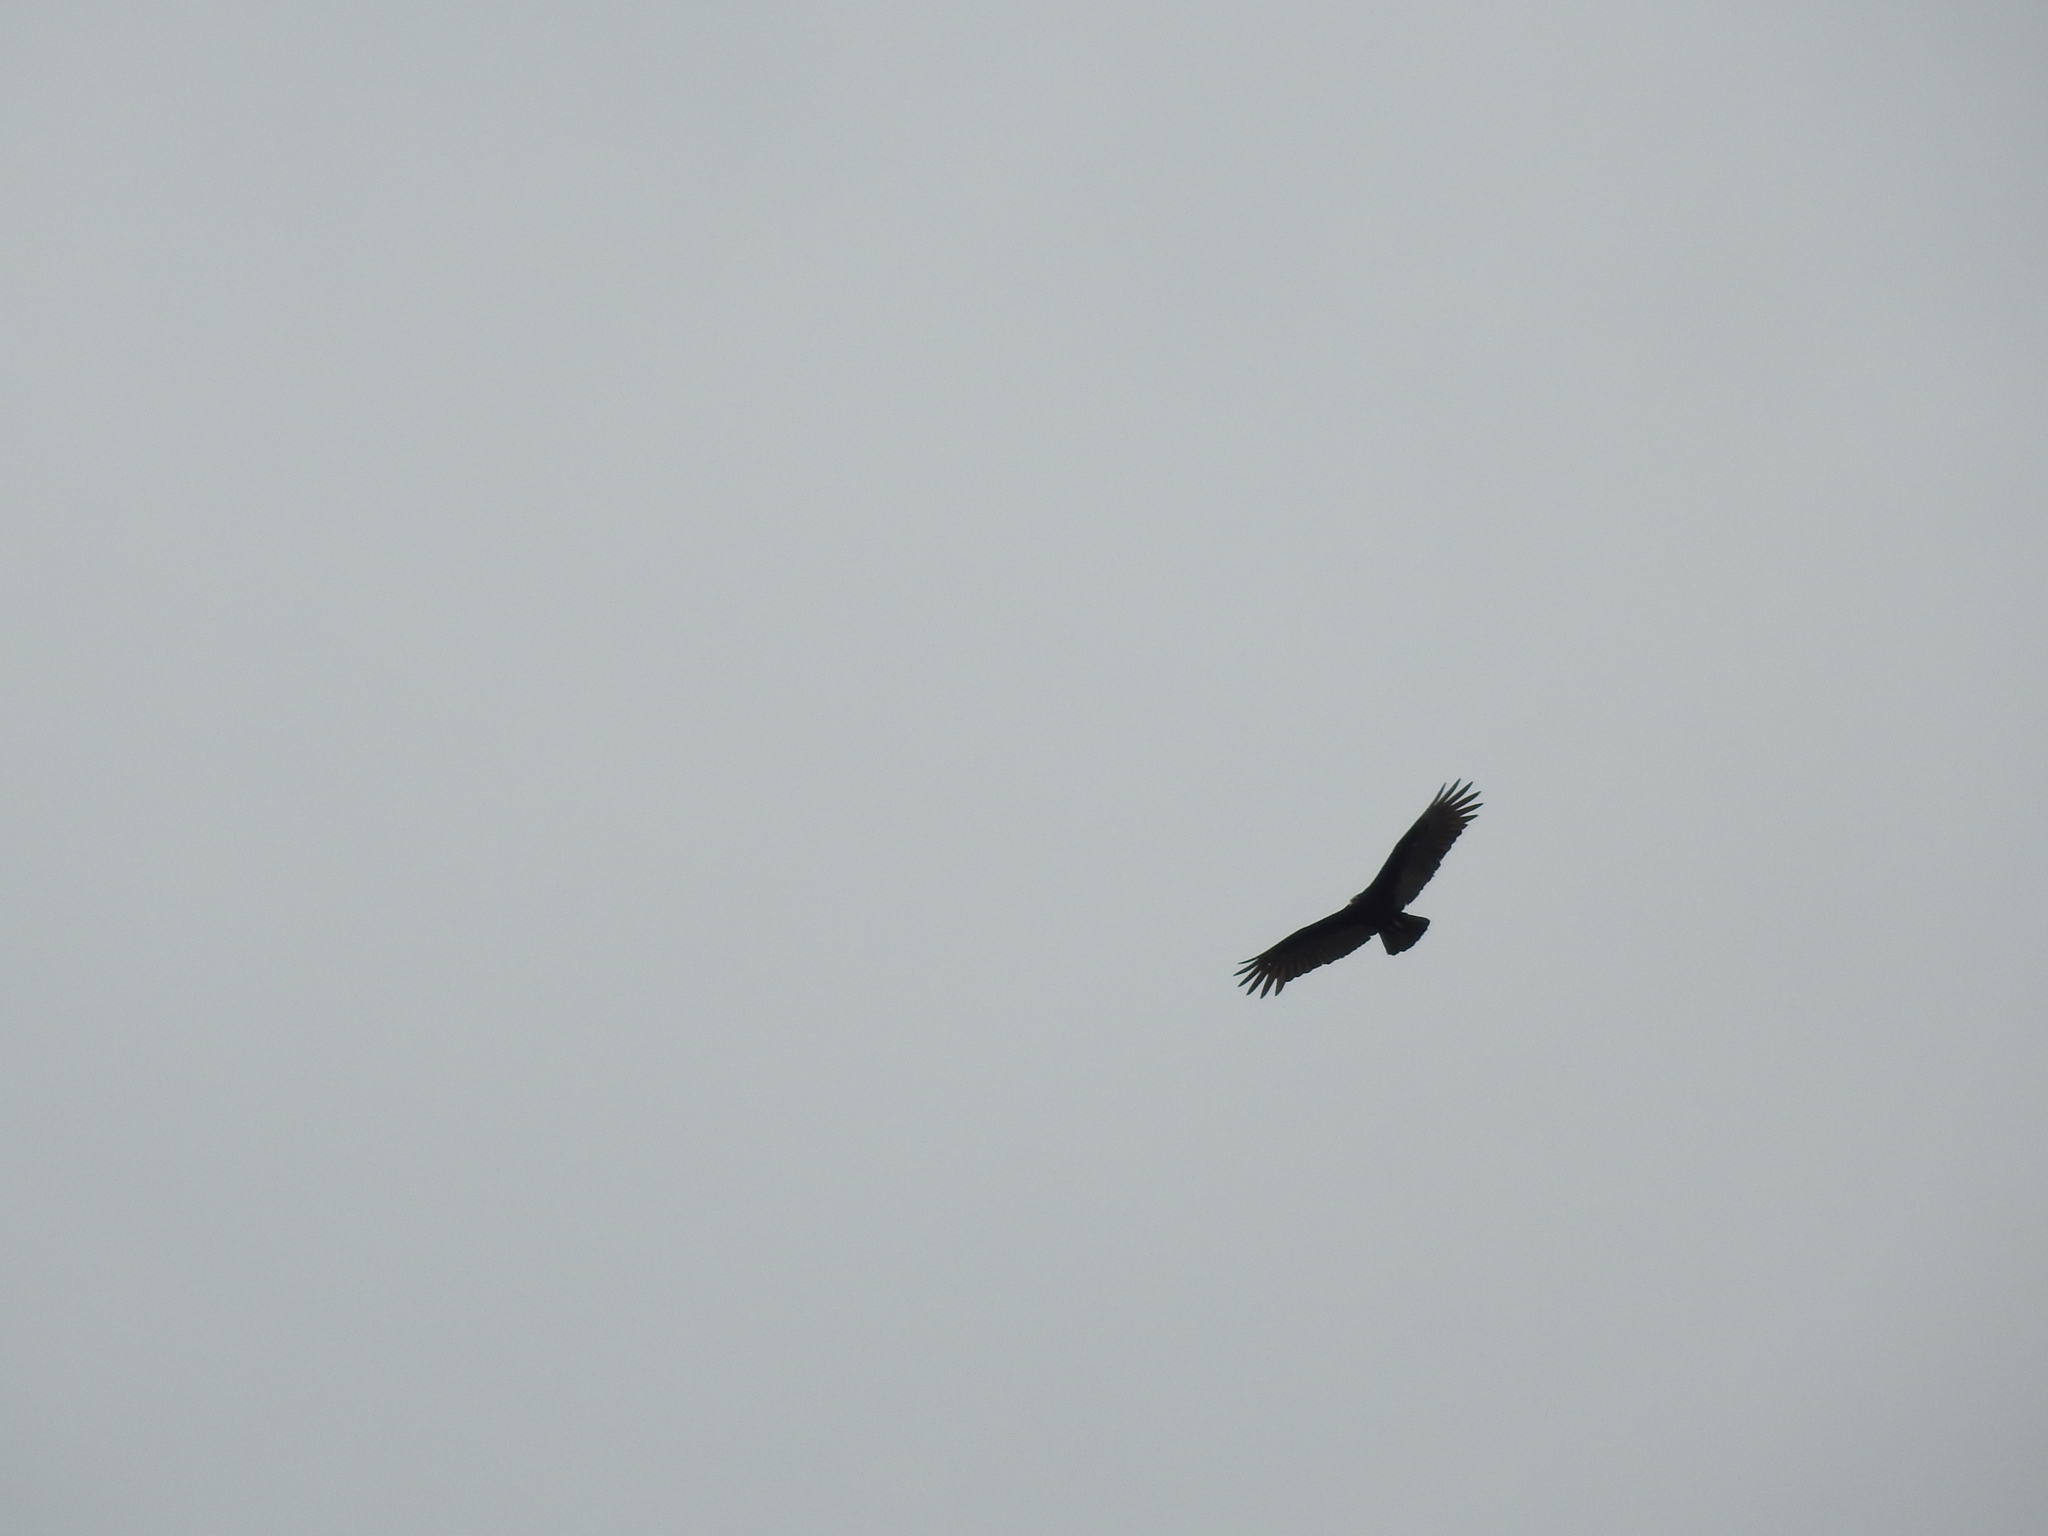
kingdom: Animalia
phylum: Chordata
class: Aves
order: Accipitriformes
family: Cathartidae
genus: Cathartes
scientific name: Cathartes aura
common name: Turkey vulture
